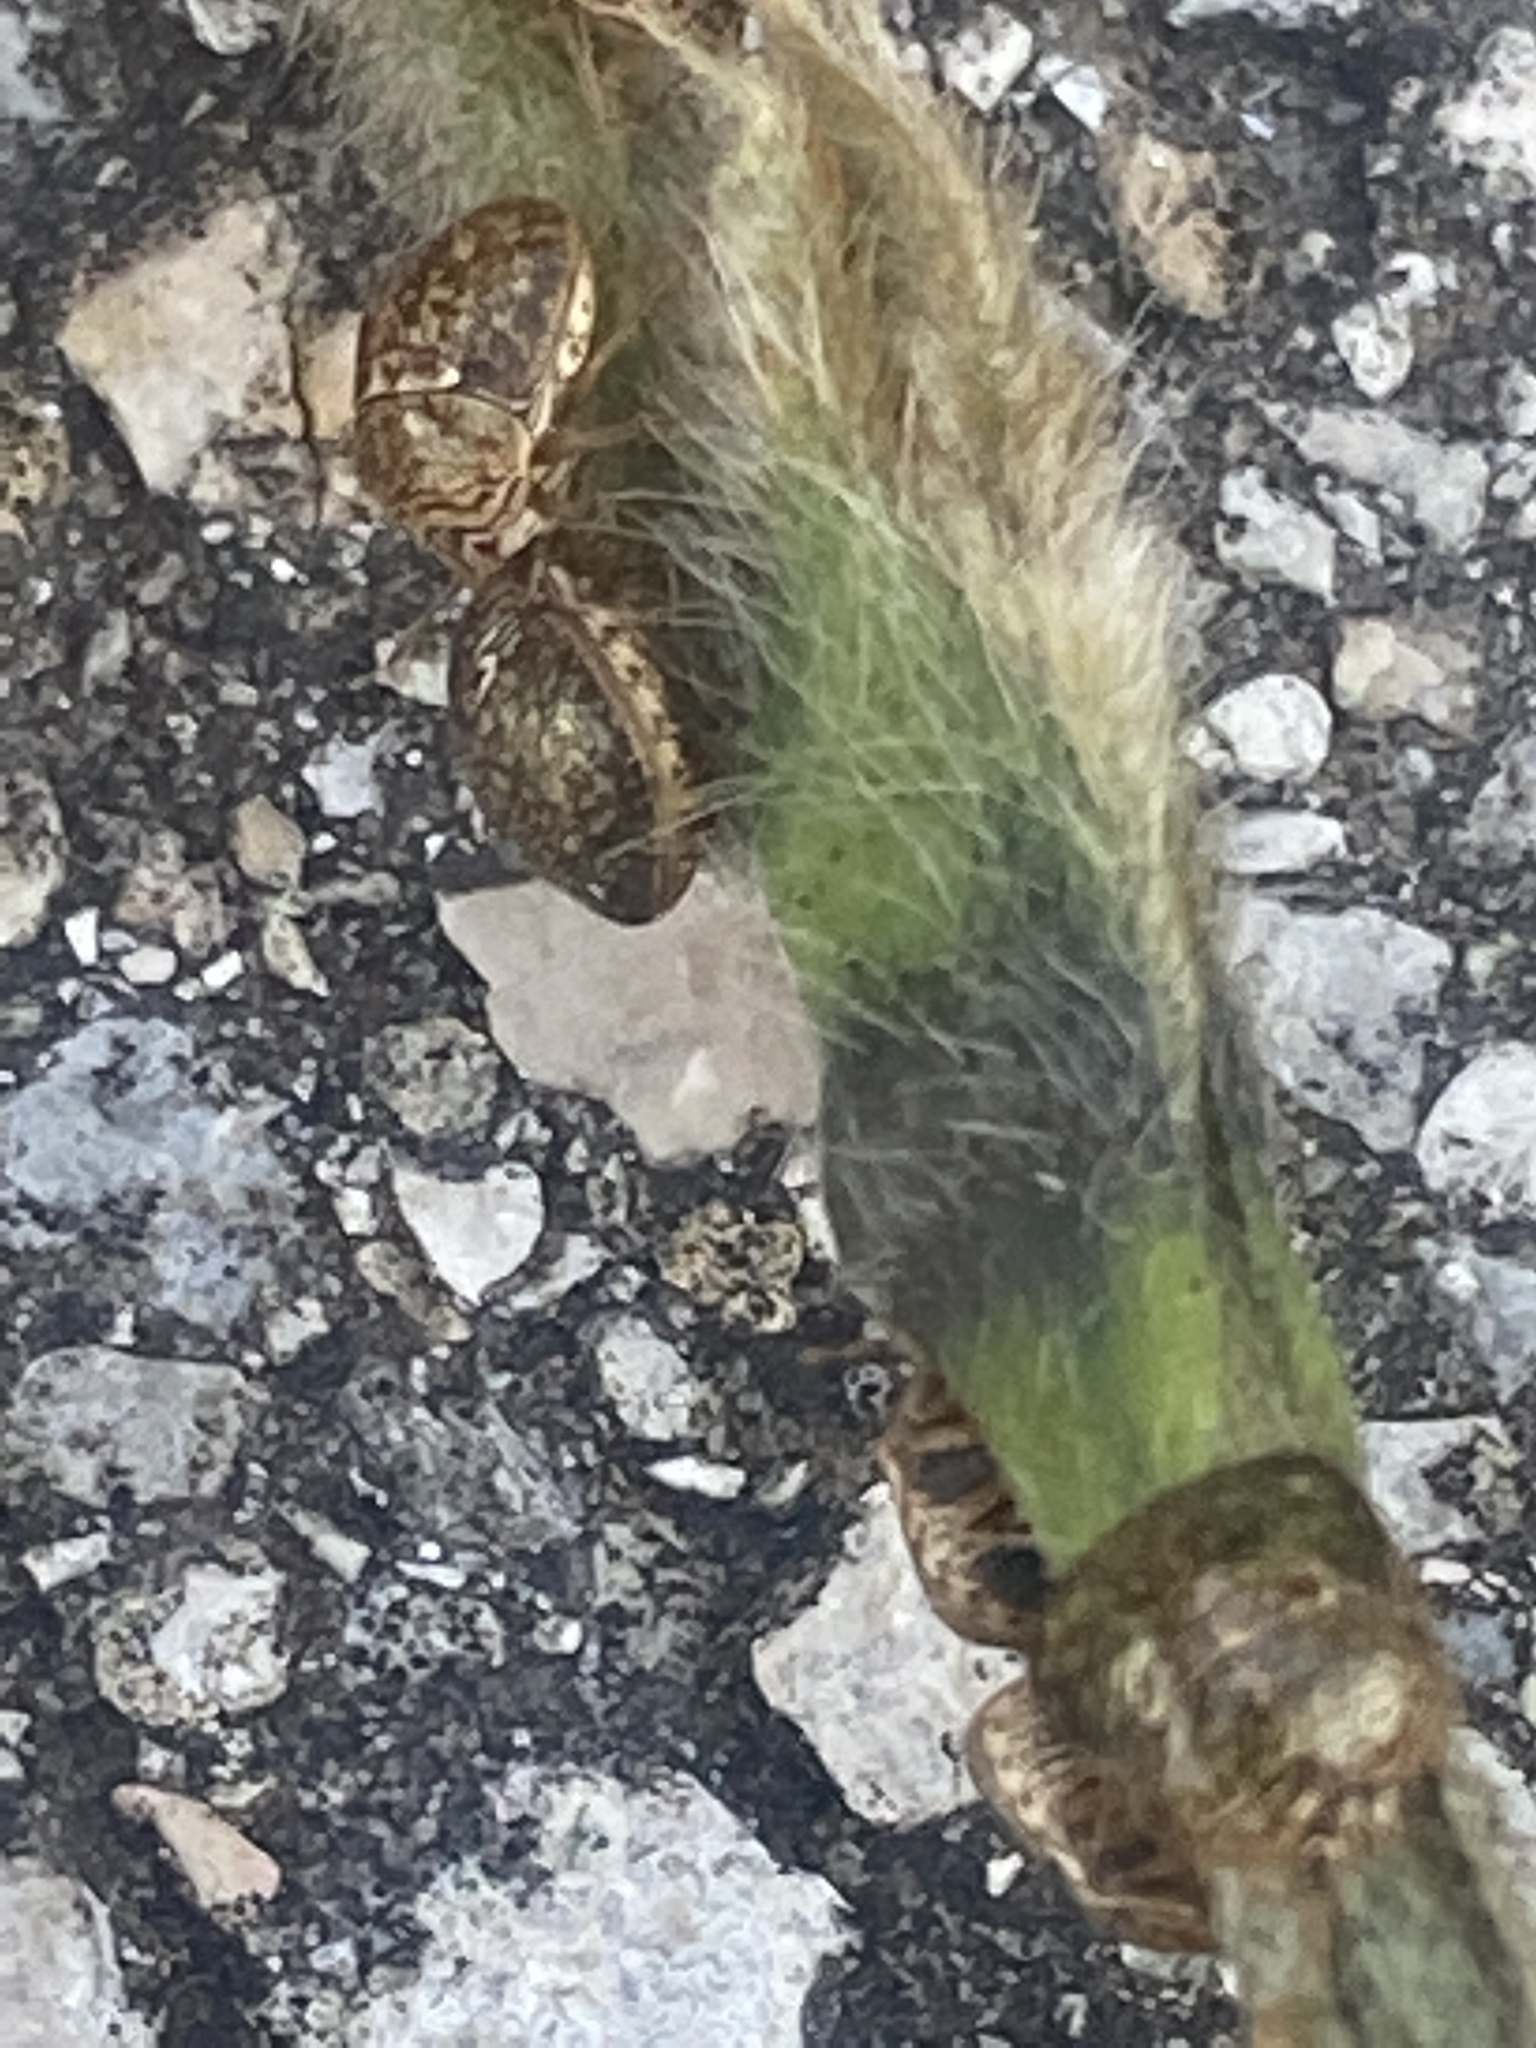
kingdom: Animalia
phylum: Arthropoda
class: Insecta
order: Hemiptera
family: Plataspidae
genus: Megacopta
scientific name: Megacopta cribraria
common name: Bean plataspid
